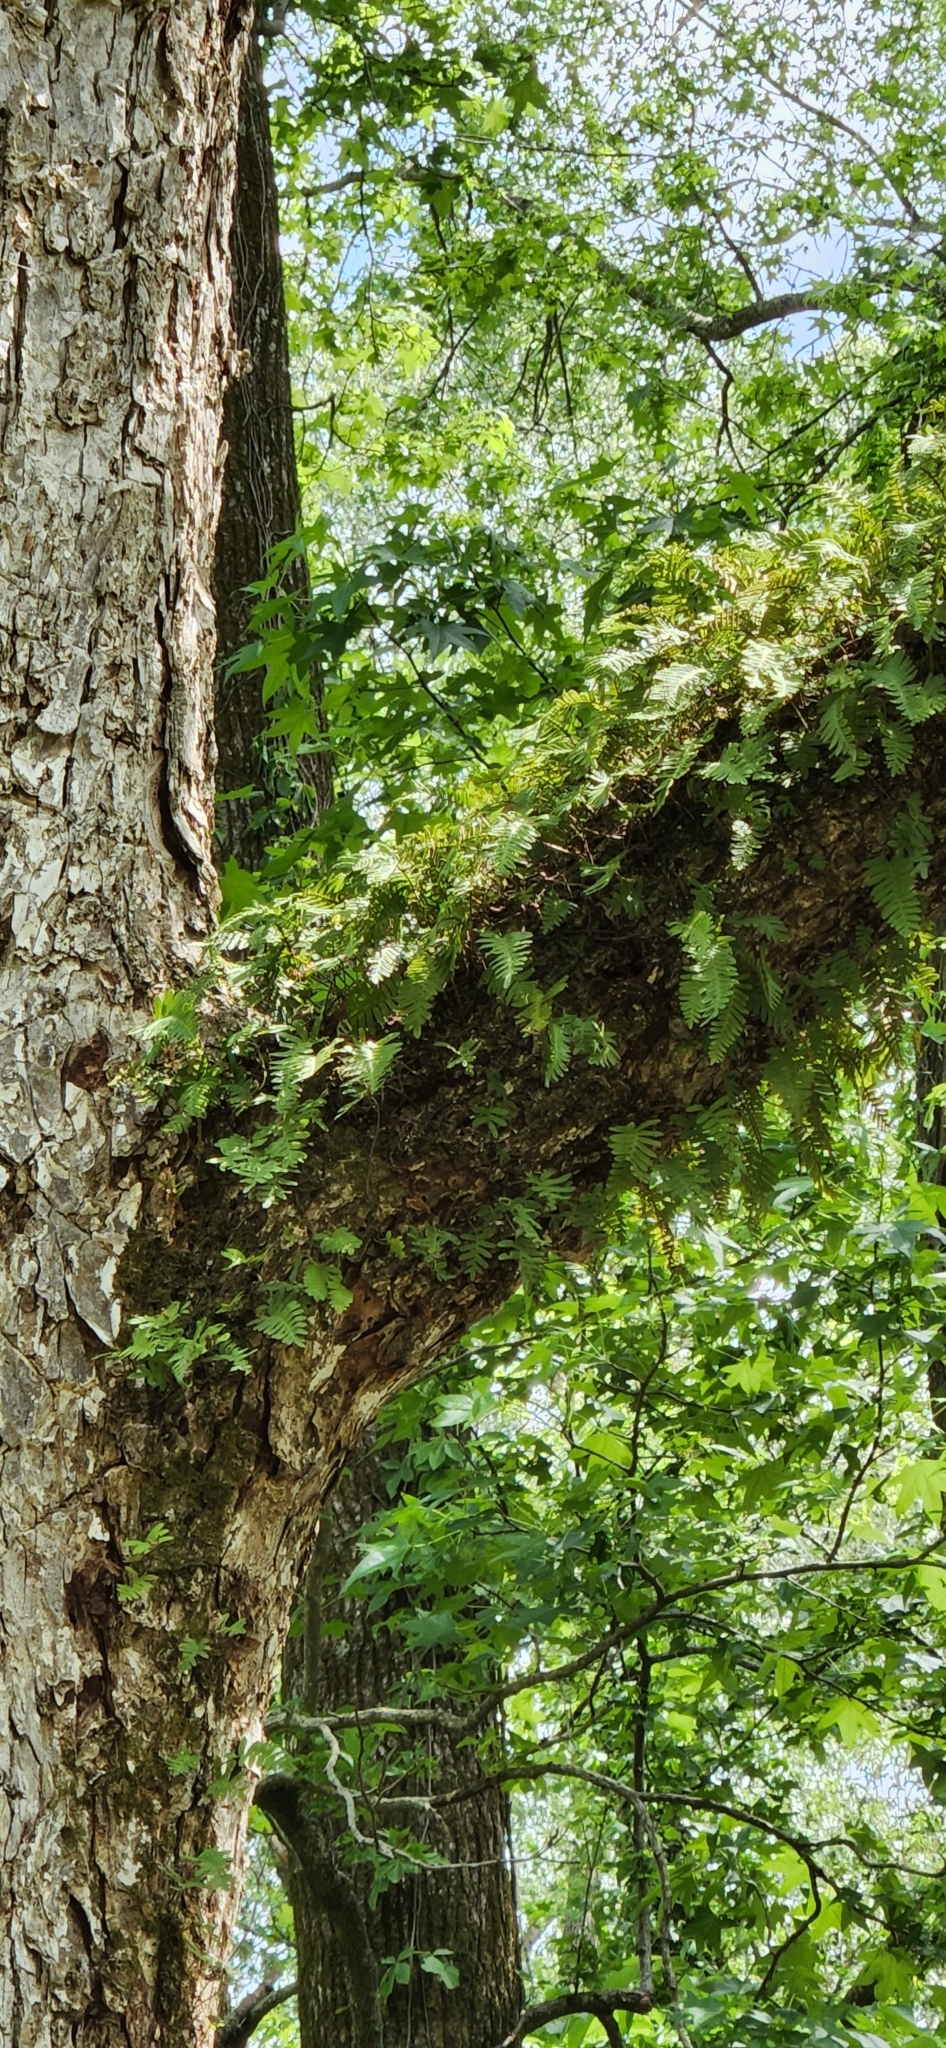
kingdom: Plantae
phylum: Tracheophyta
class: Polypodiopsida
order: Polypodiales
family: Polypodiaceae
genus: Pleopeltis
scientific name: Pleopeltis michauxiana
